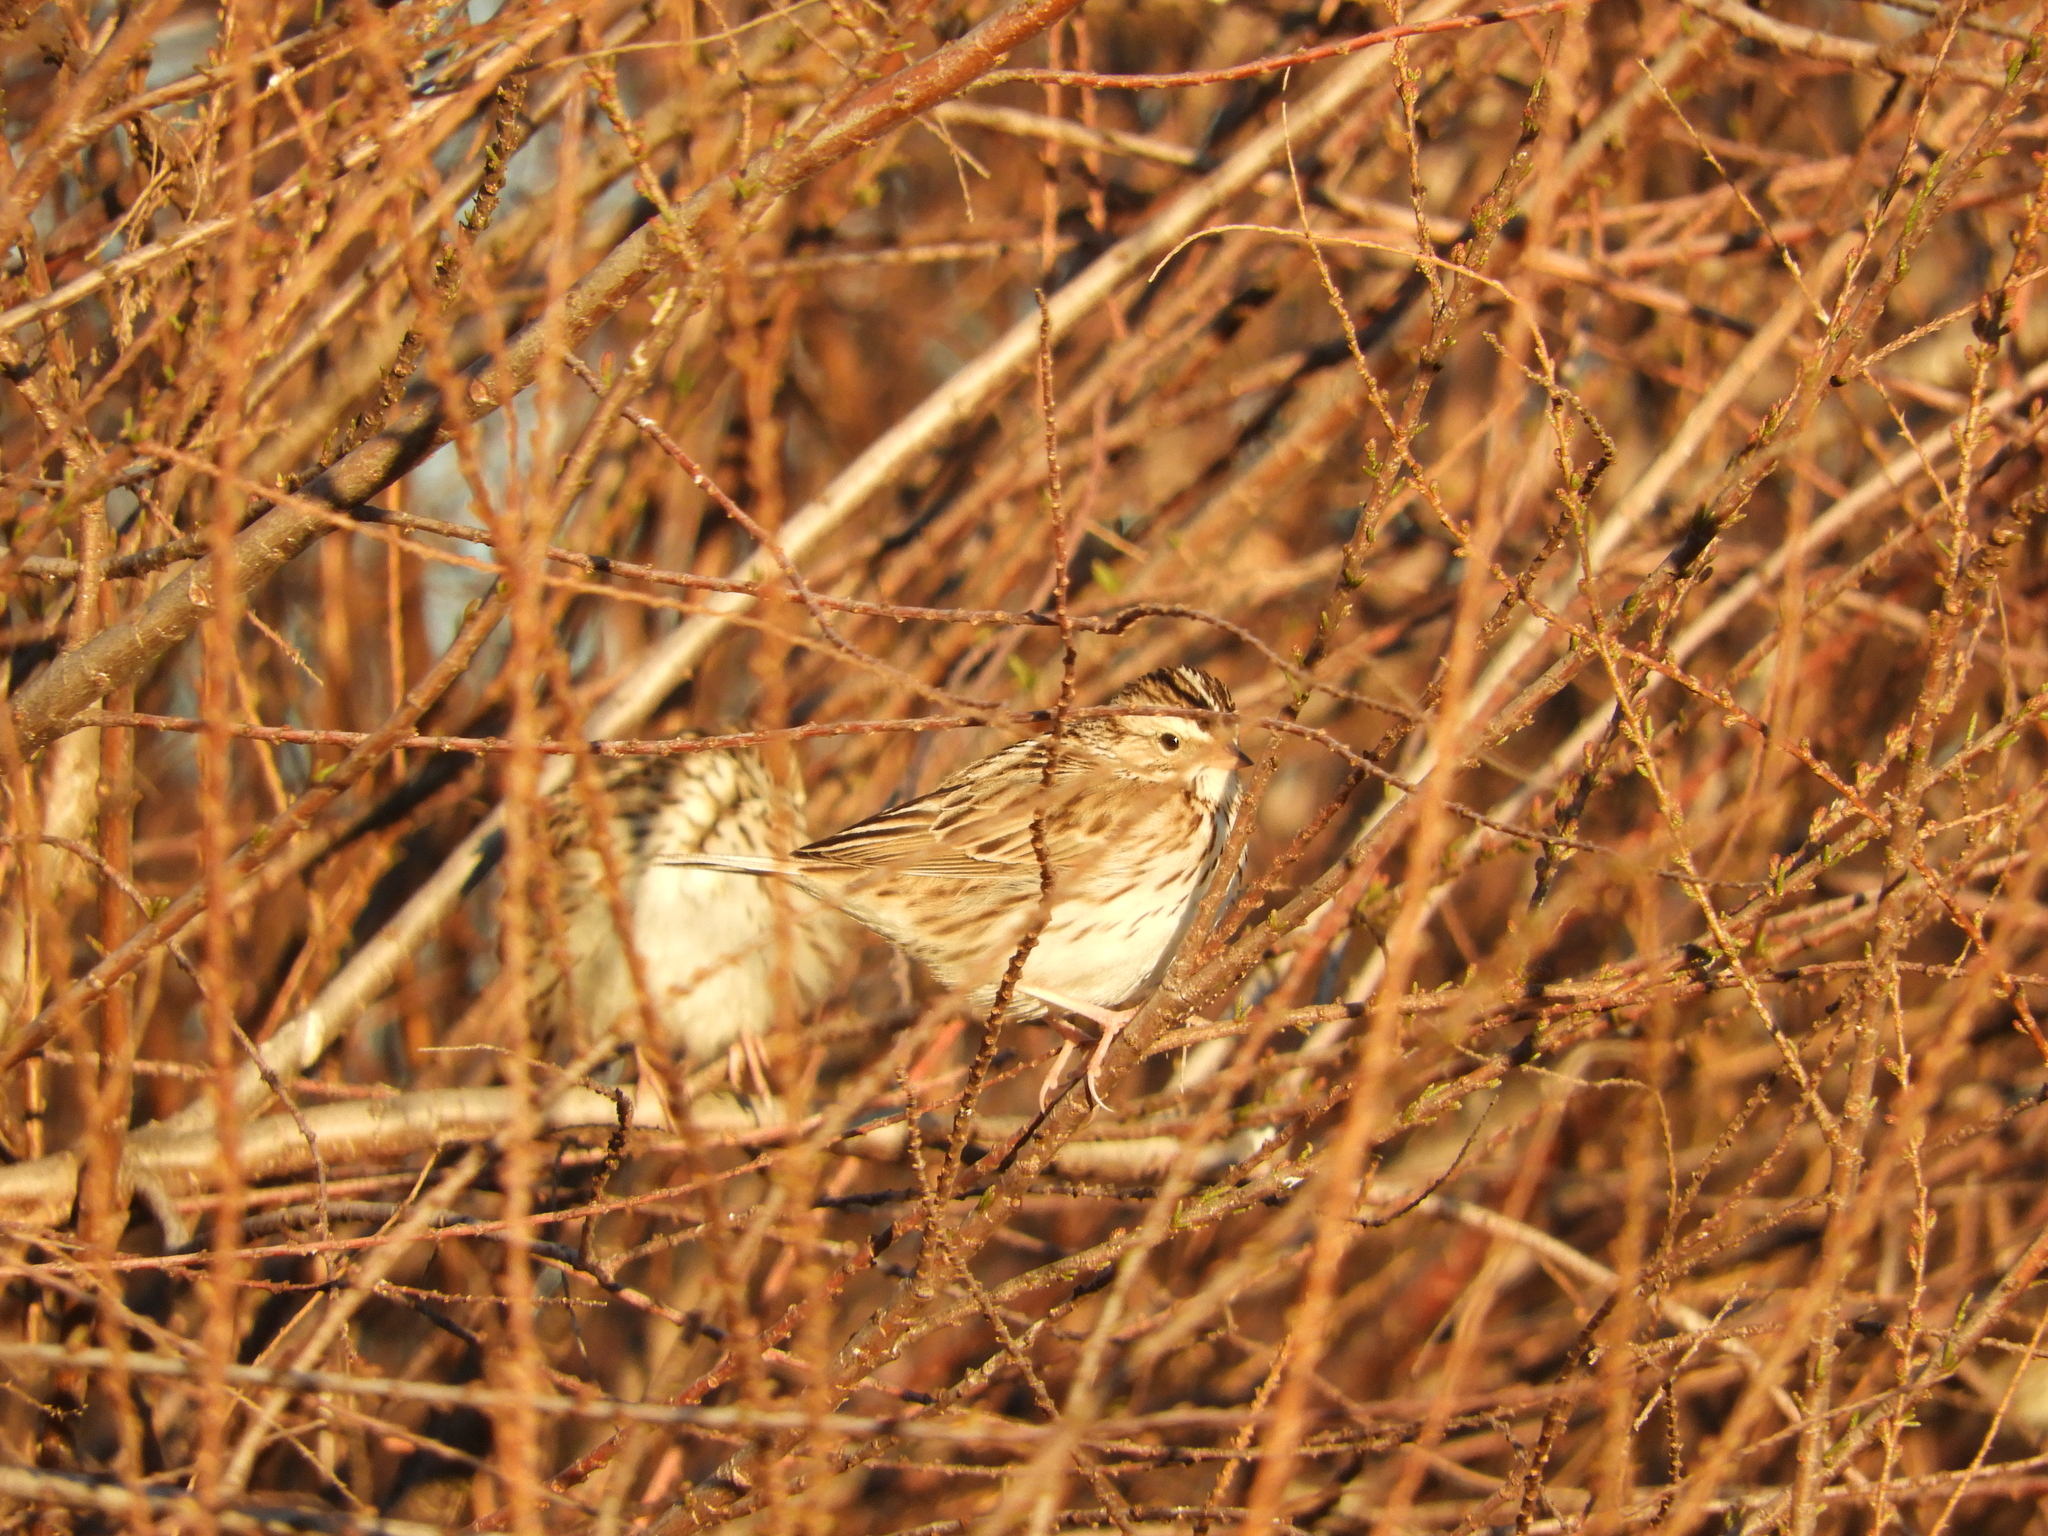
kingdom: Animalia
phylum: Chordata
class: Aves
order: Passeriformes
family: Passerellidae
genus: Passerculus
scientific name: Passerculus sandwichensis
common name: Savannah sparrow
